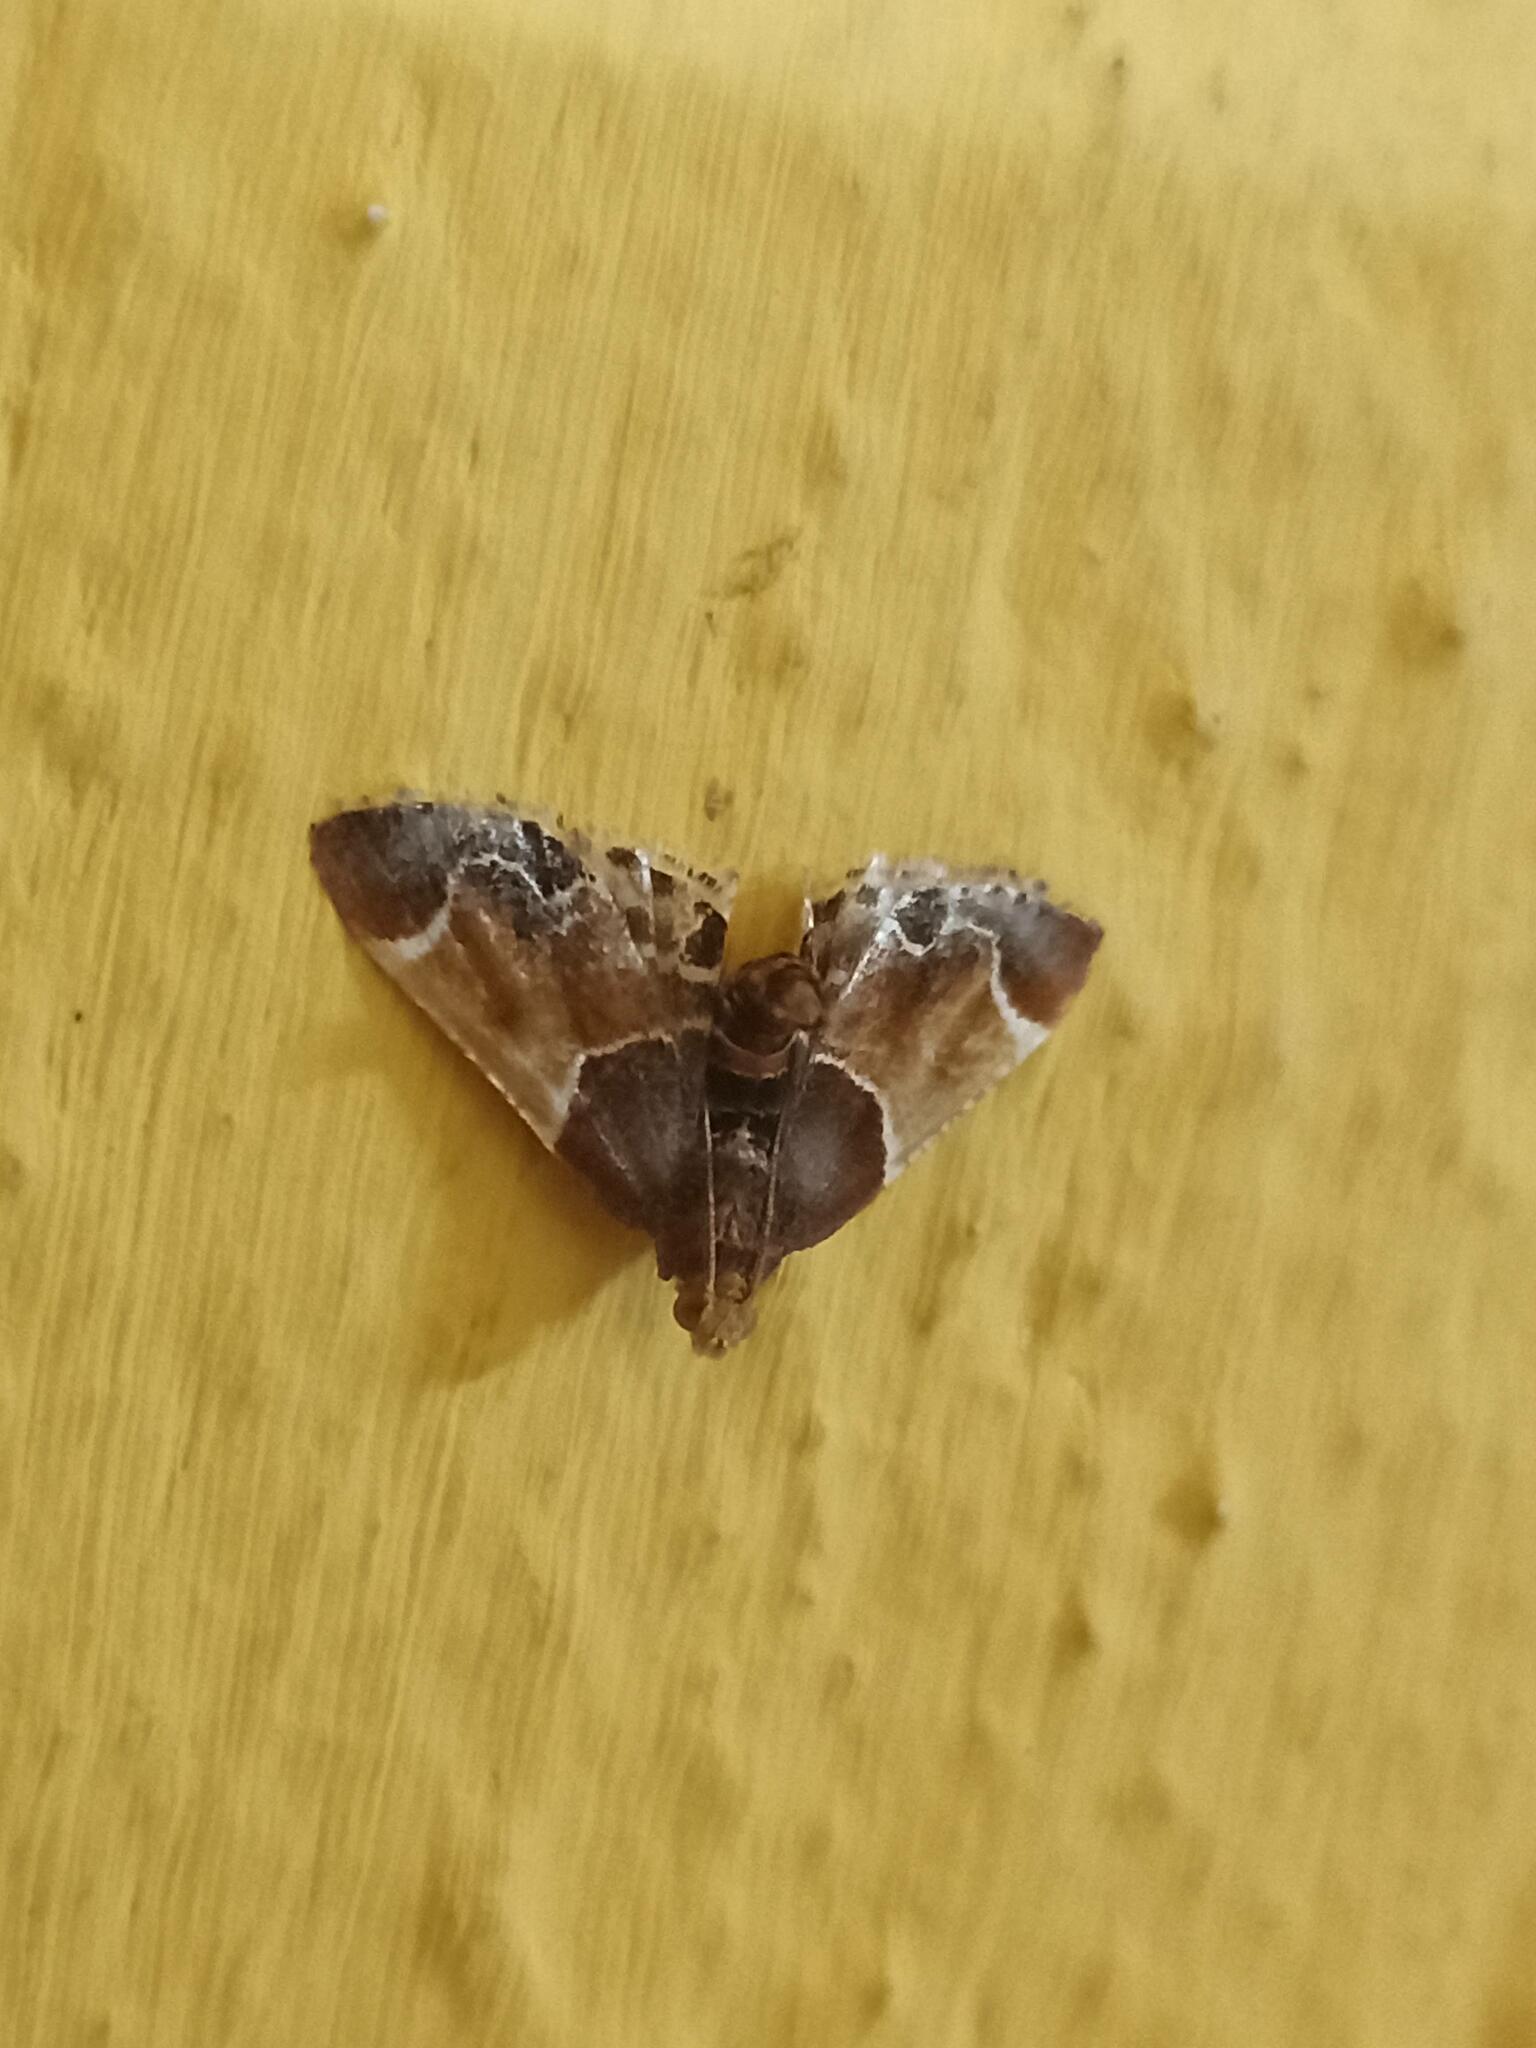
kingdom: Animalia
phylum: Arthropoda
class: Insecta
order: Lepidoptera
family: Pyralidae
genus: Pyralis
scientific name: Pyralis farinalis
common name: Meal moth
